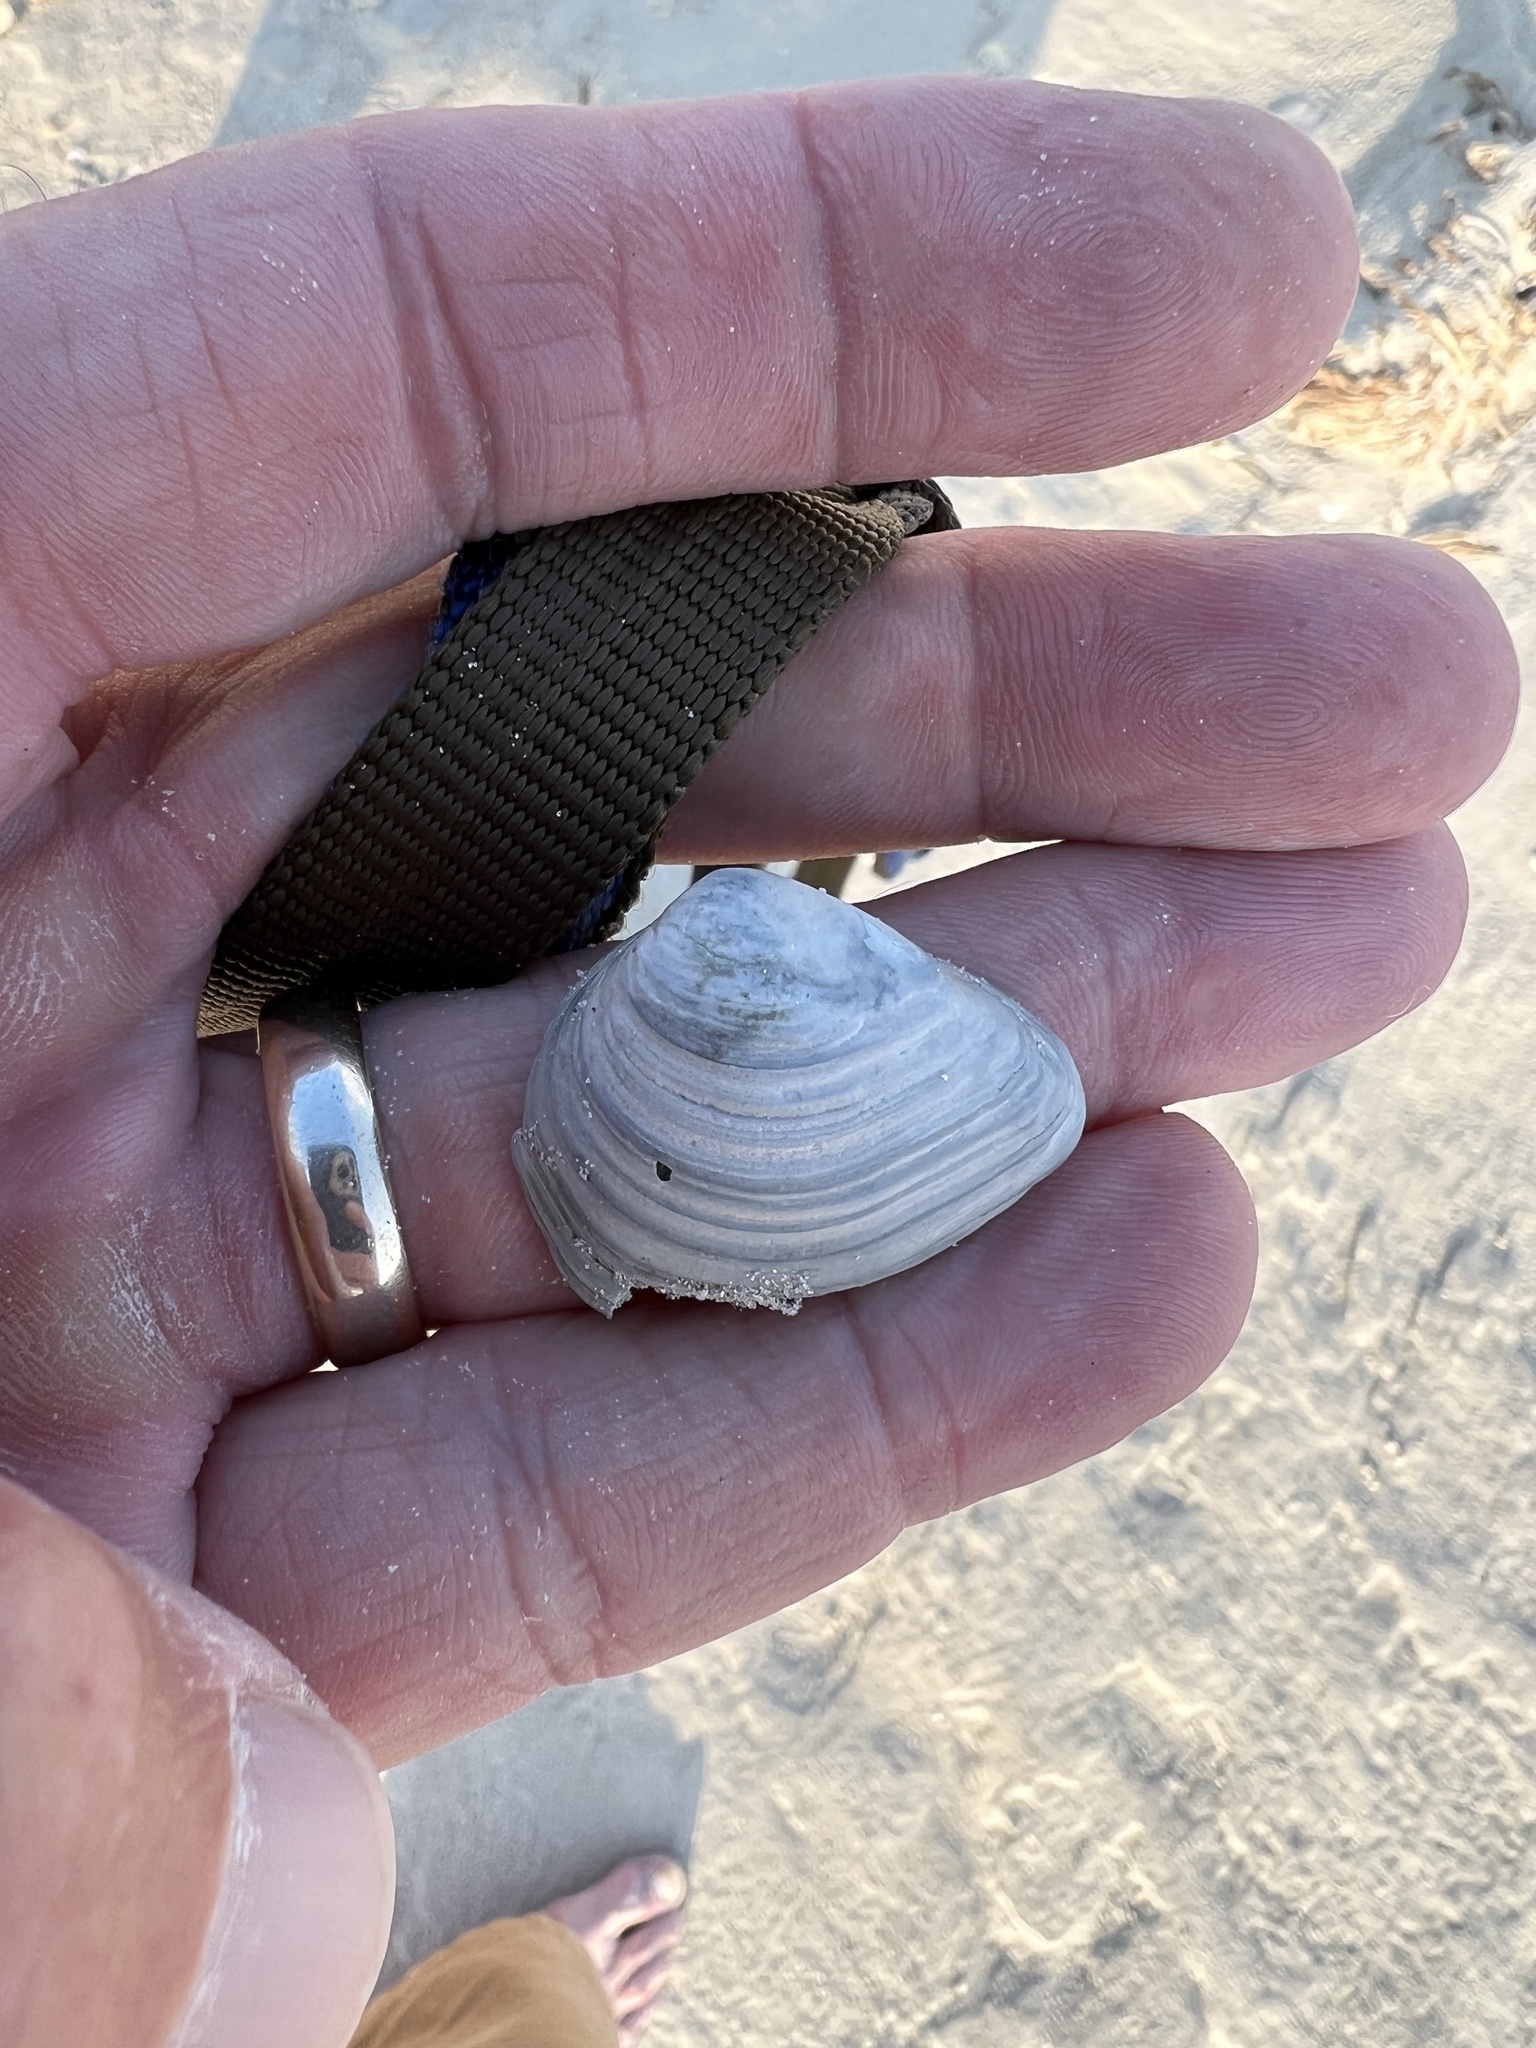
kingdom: Animalia
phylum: Mollusca
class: Bivalvia
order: Venerida
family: Mactridae
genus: Rangia
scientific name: Rangia flexuosa
